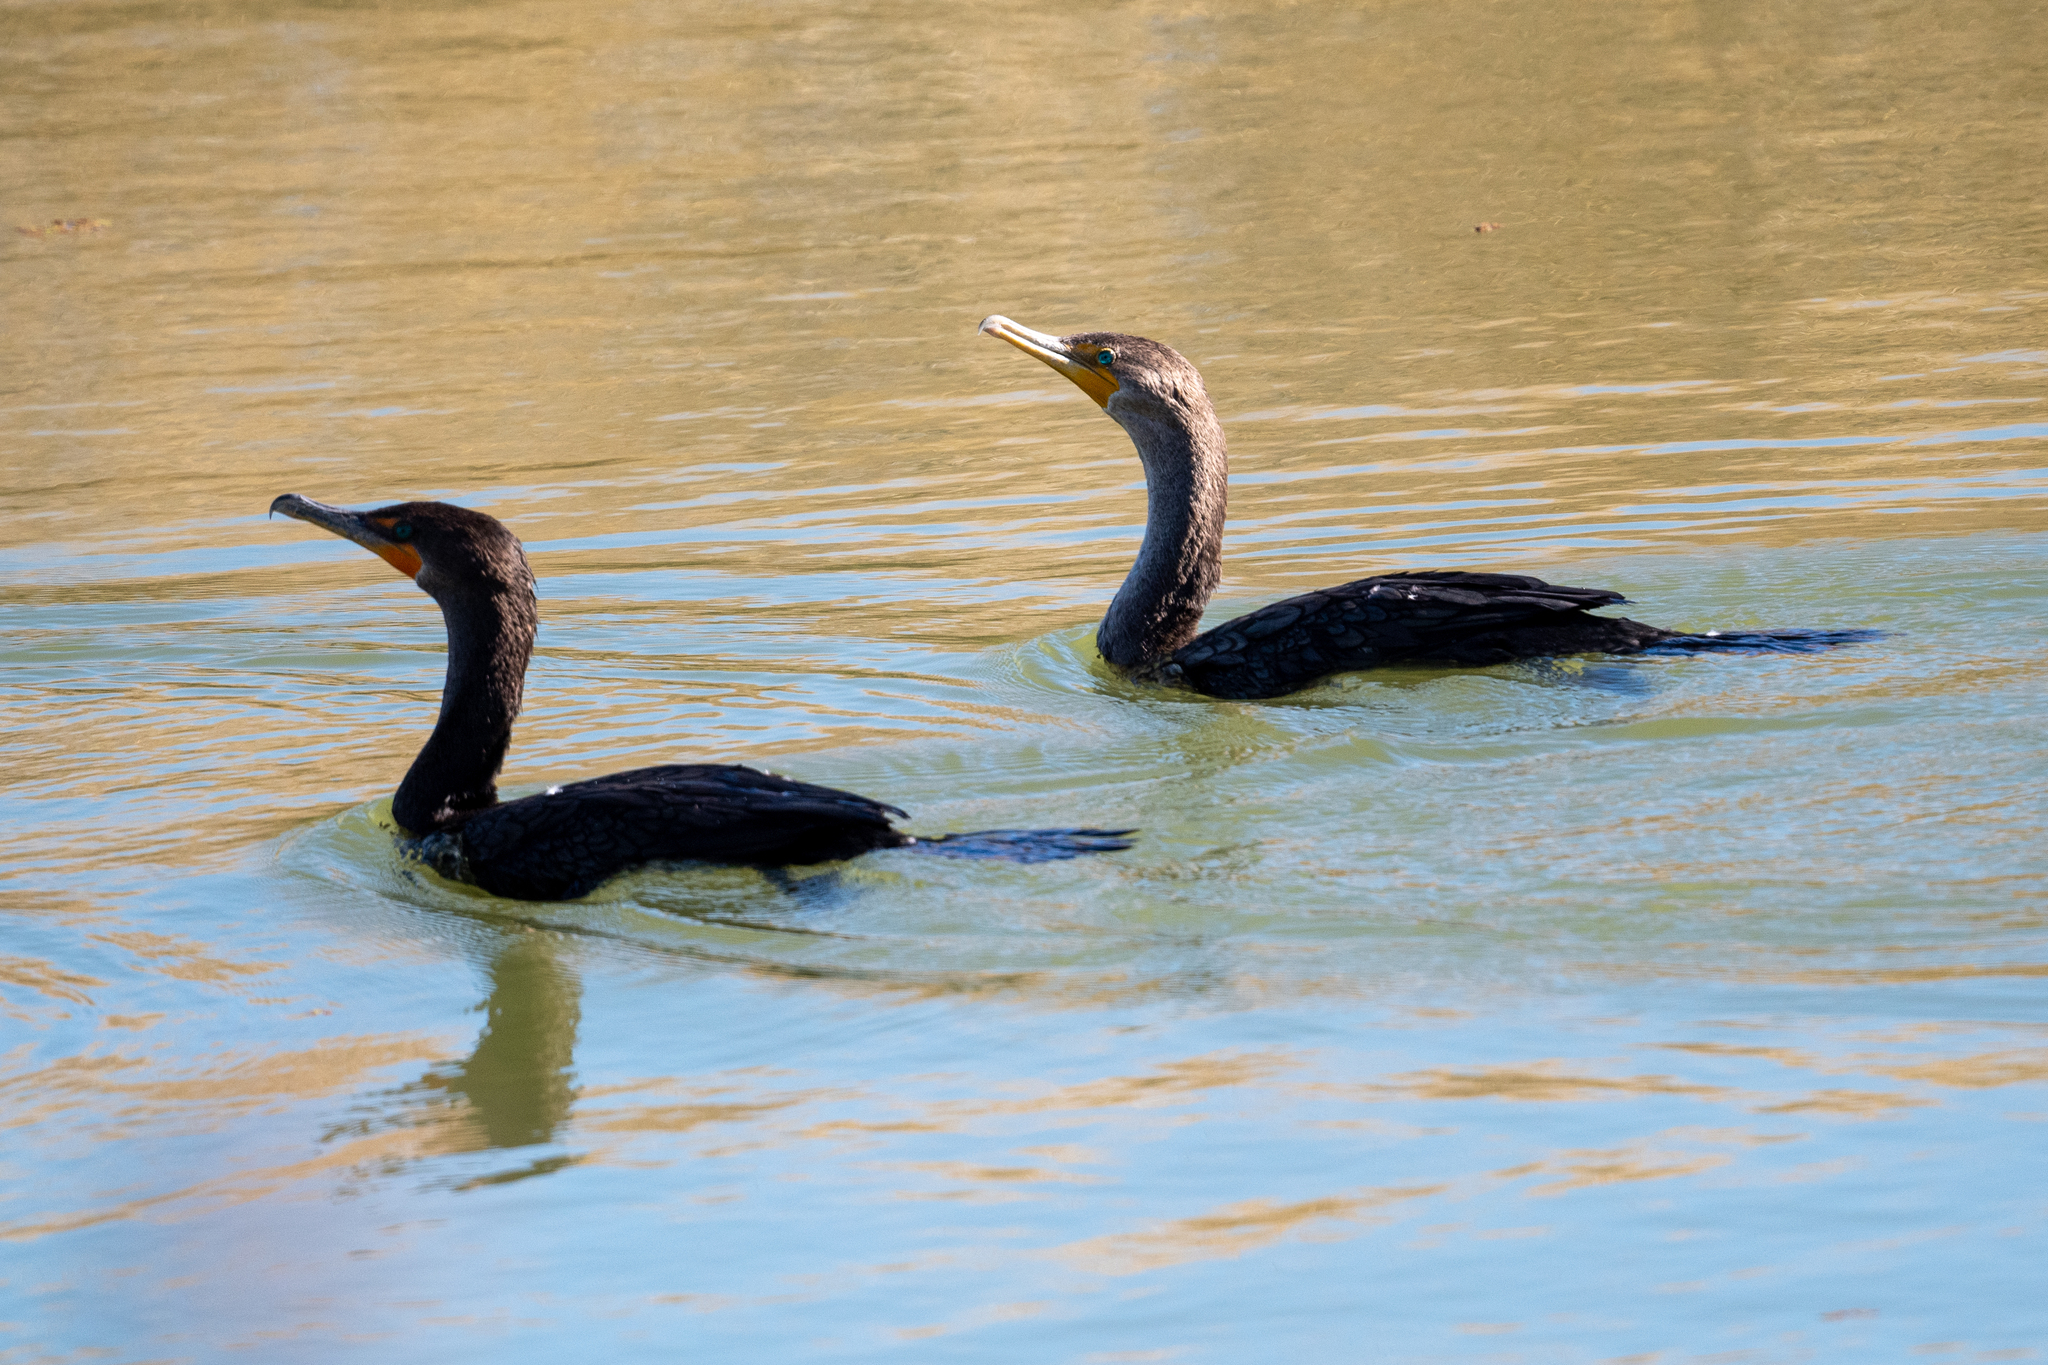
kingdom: Animalia
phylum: Chordata
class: Aves
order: Suliformes
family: Phalacrocoracidae
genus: Phalacrocorax
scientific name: Phalacrocorax auritus
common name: Double-crested cormorant
